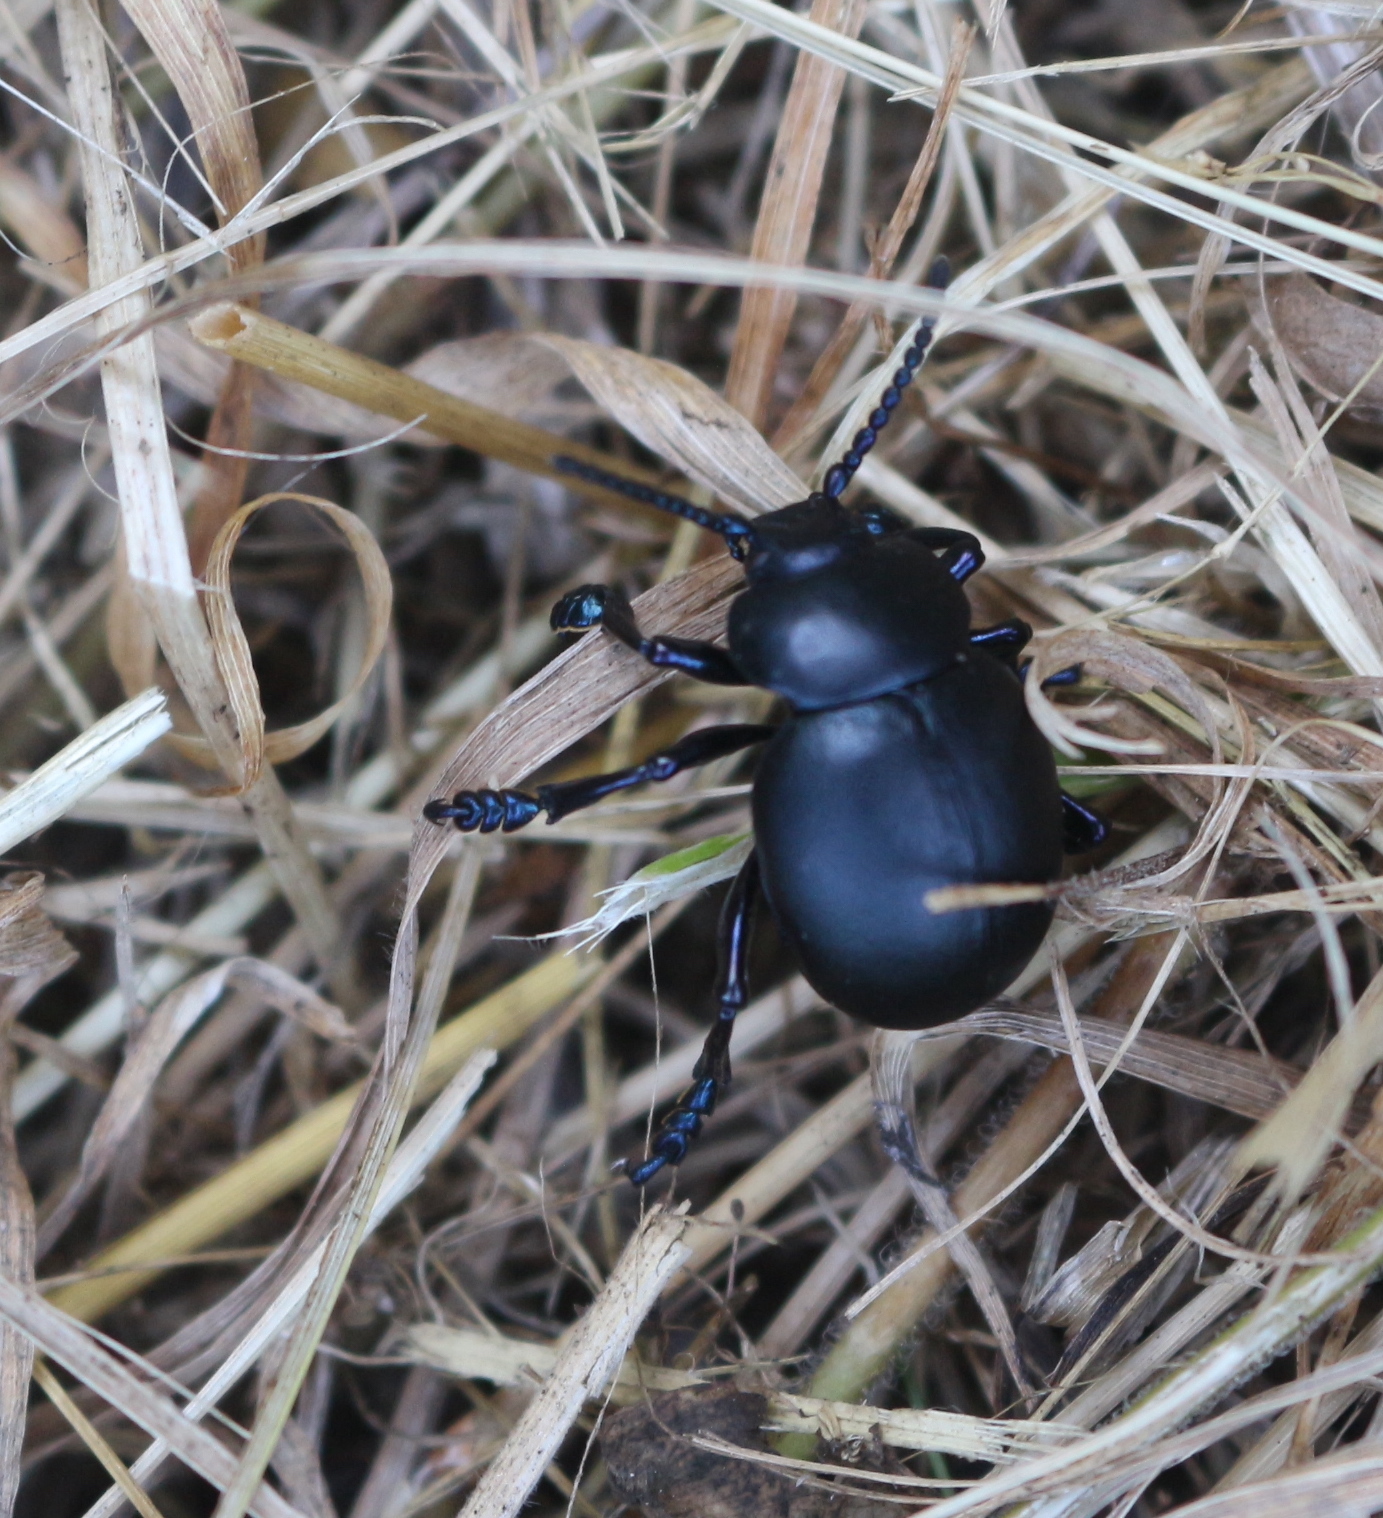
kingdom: Animalia
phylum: Arthropoda
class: Insecta
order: Coleoptera
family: Chrysomelidae
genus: Timarcha
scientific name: Timarcha tenebricosa
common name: Bloody-nosed beetle
